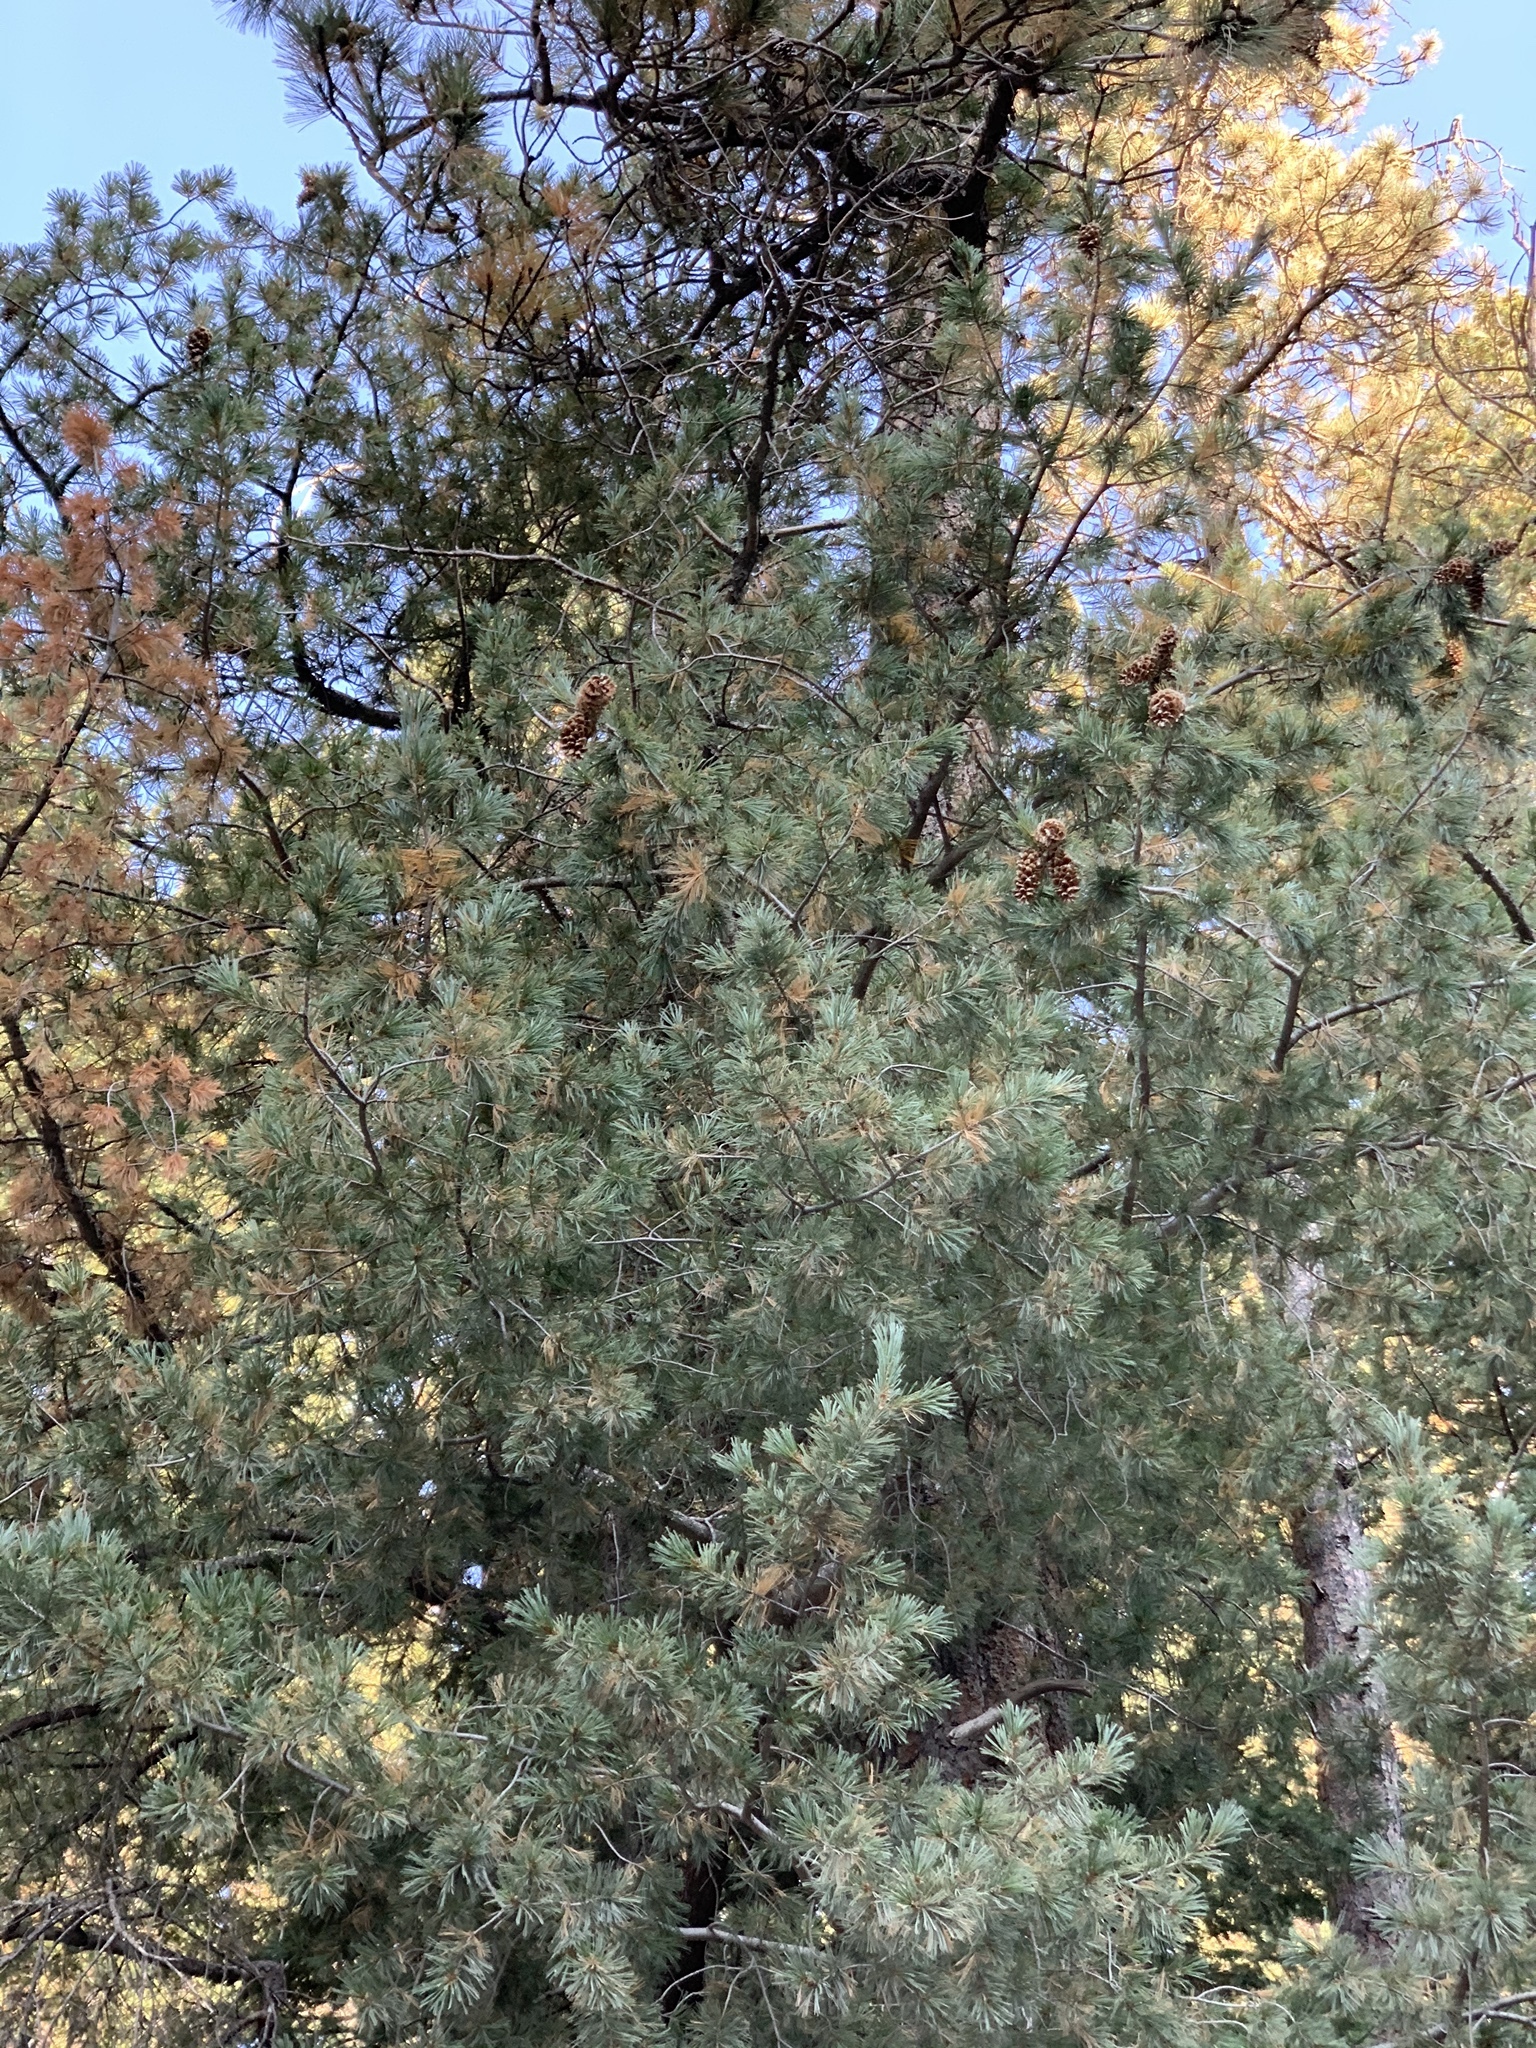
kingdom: Plantae
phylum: Tracheophyta
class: Pinopsida
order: Pinales
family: Pinaceae
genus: Pinus
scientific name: Pinus strobiformis
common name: Southwestern white pine
